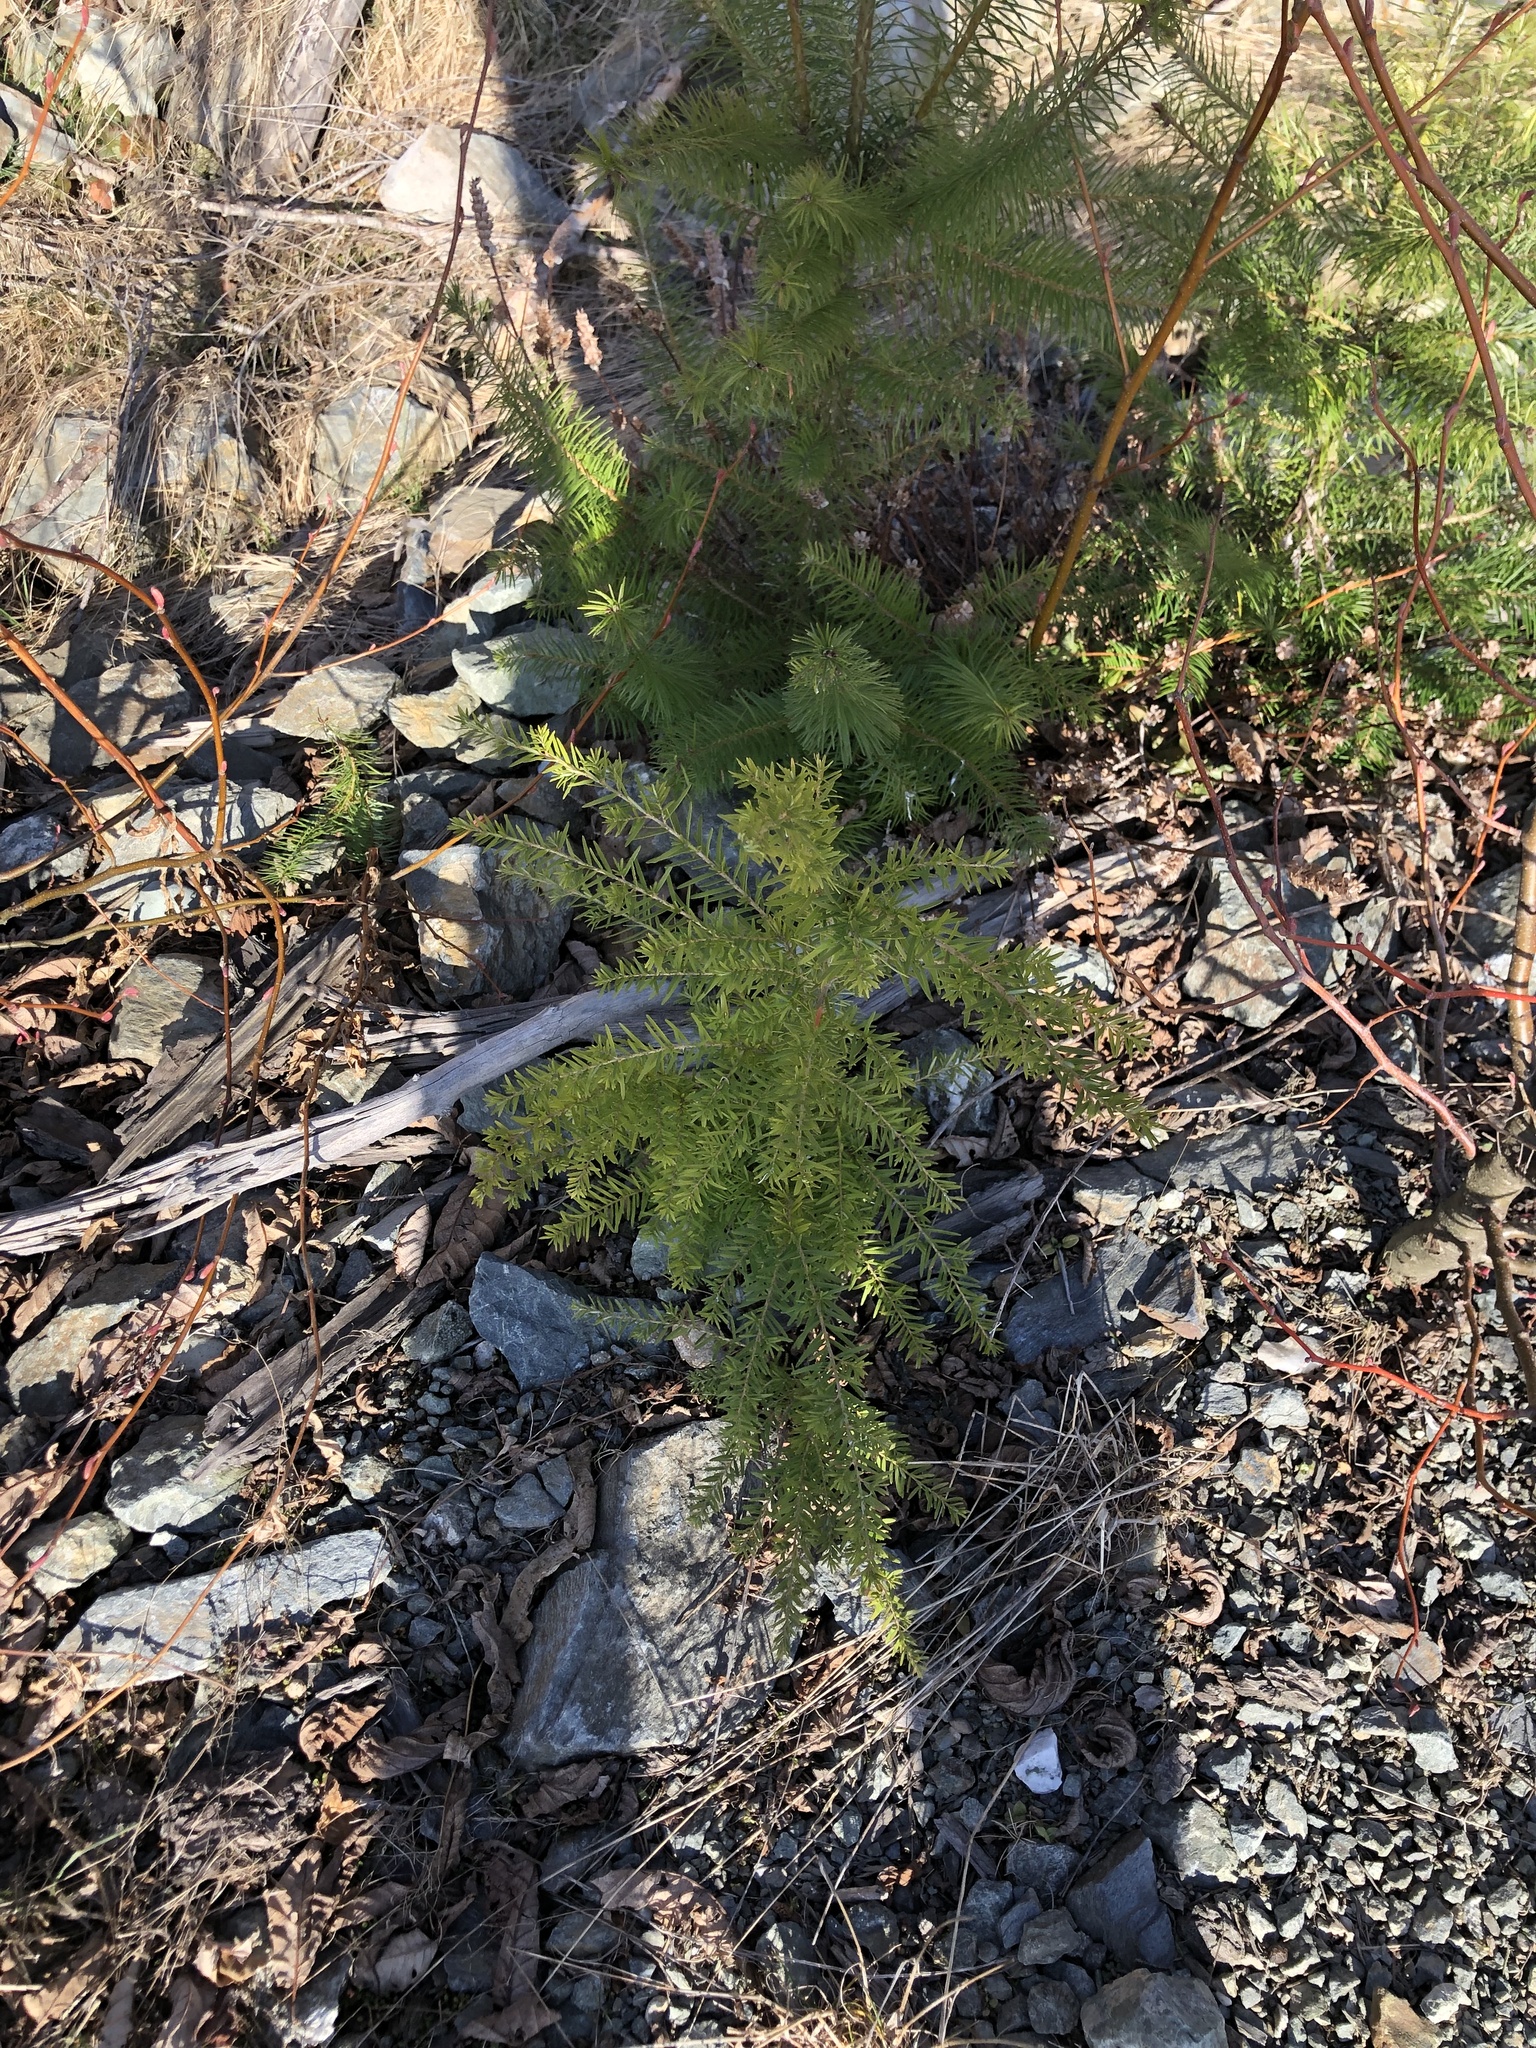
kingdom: Plantae
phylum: Tracheophyta
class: Pinopsida
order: Pinales
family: Pinaceae
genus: Tsuga
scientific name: Tsuga heterophylla
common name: Western hemlock
